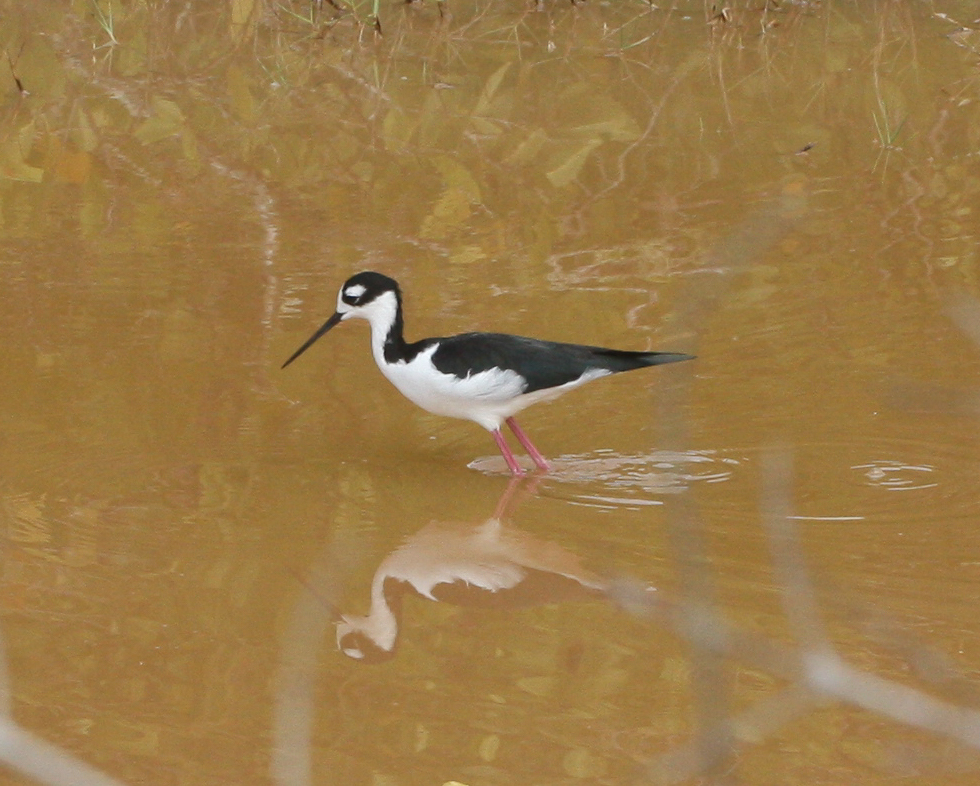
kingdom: Animalia
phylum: Chordata
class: Aves
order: Charadriiformes
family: Recurvirostridae
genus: Himantopus
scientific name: Himantopus mexicanus
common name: Black-necked stilt
